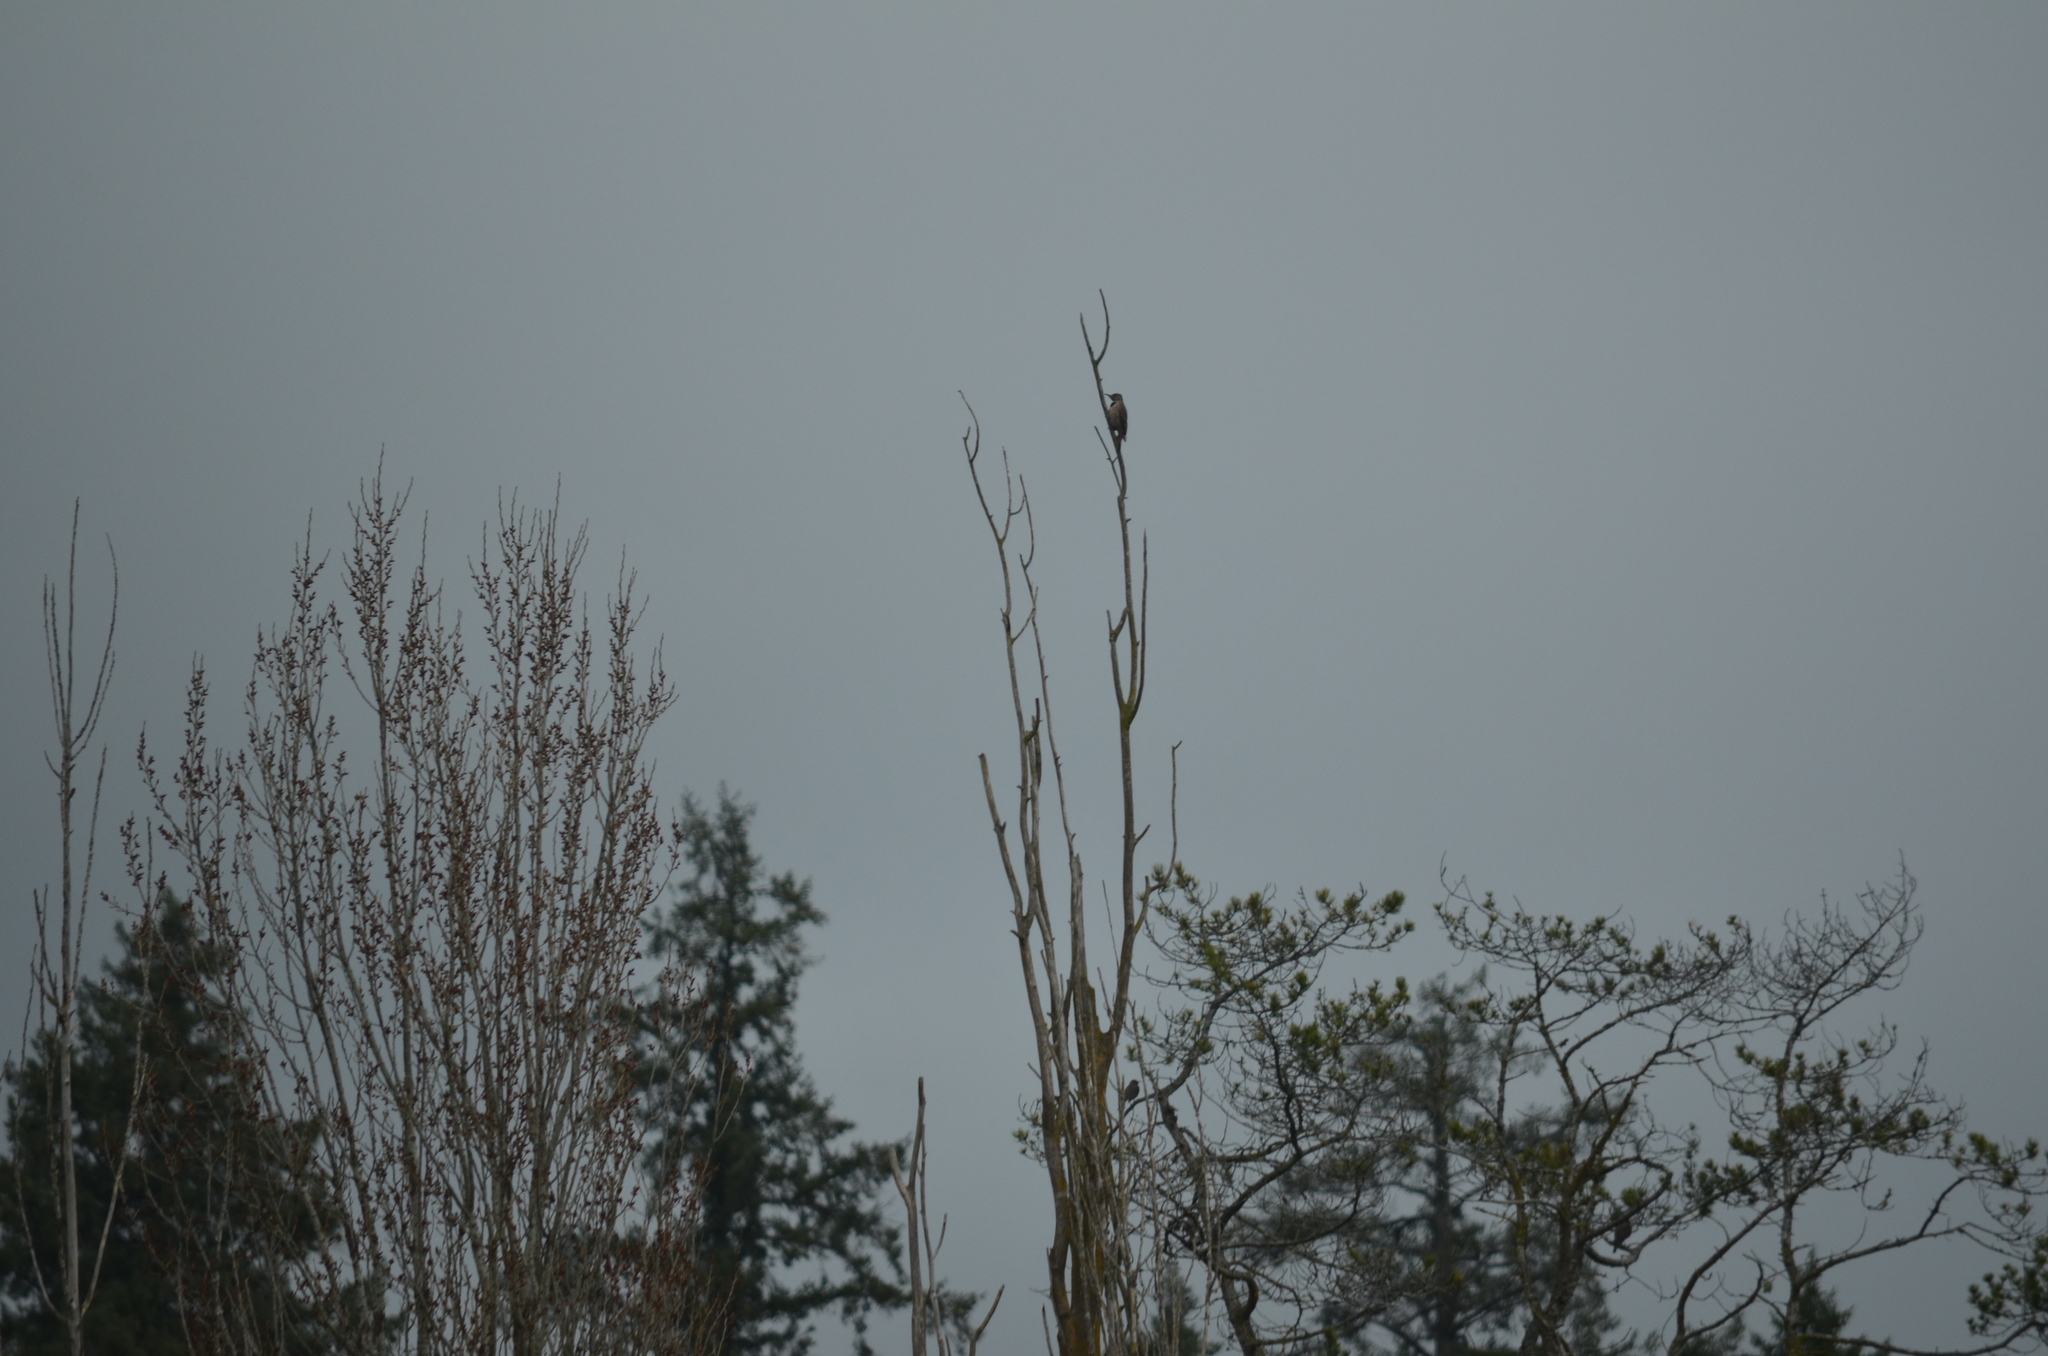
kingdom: Animalia
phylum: Chordata
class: Aves
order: Piciformes
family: Picidae
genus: Colaptes
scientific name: Colaptes auratus
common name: Northern flicker
